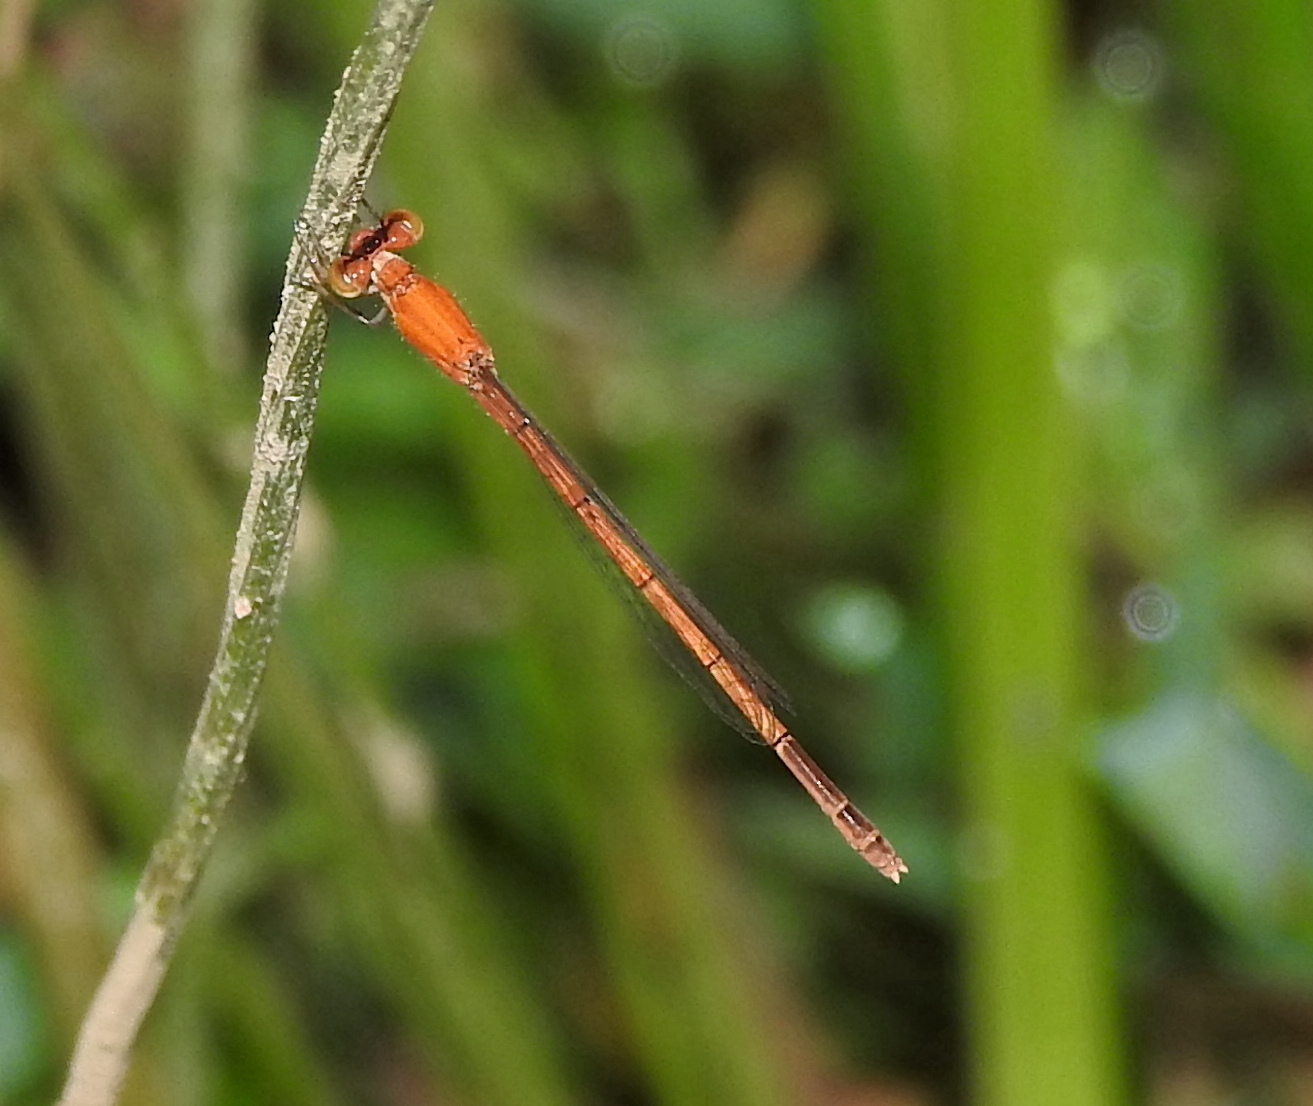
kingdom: Animalia
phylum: Arthropoda
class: Insecta
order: Odonata
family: Coenagrionidae
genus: Agriocnemis
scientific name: Agriocnemis pieris
